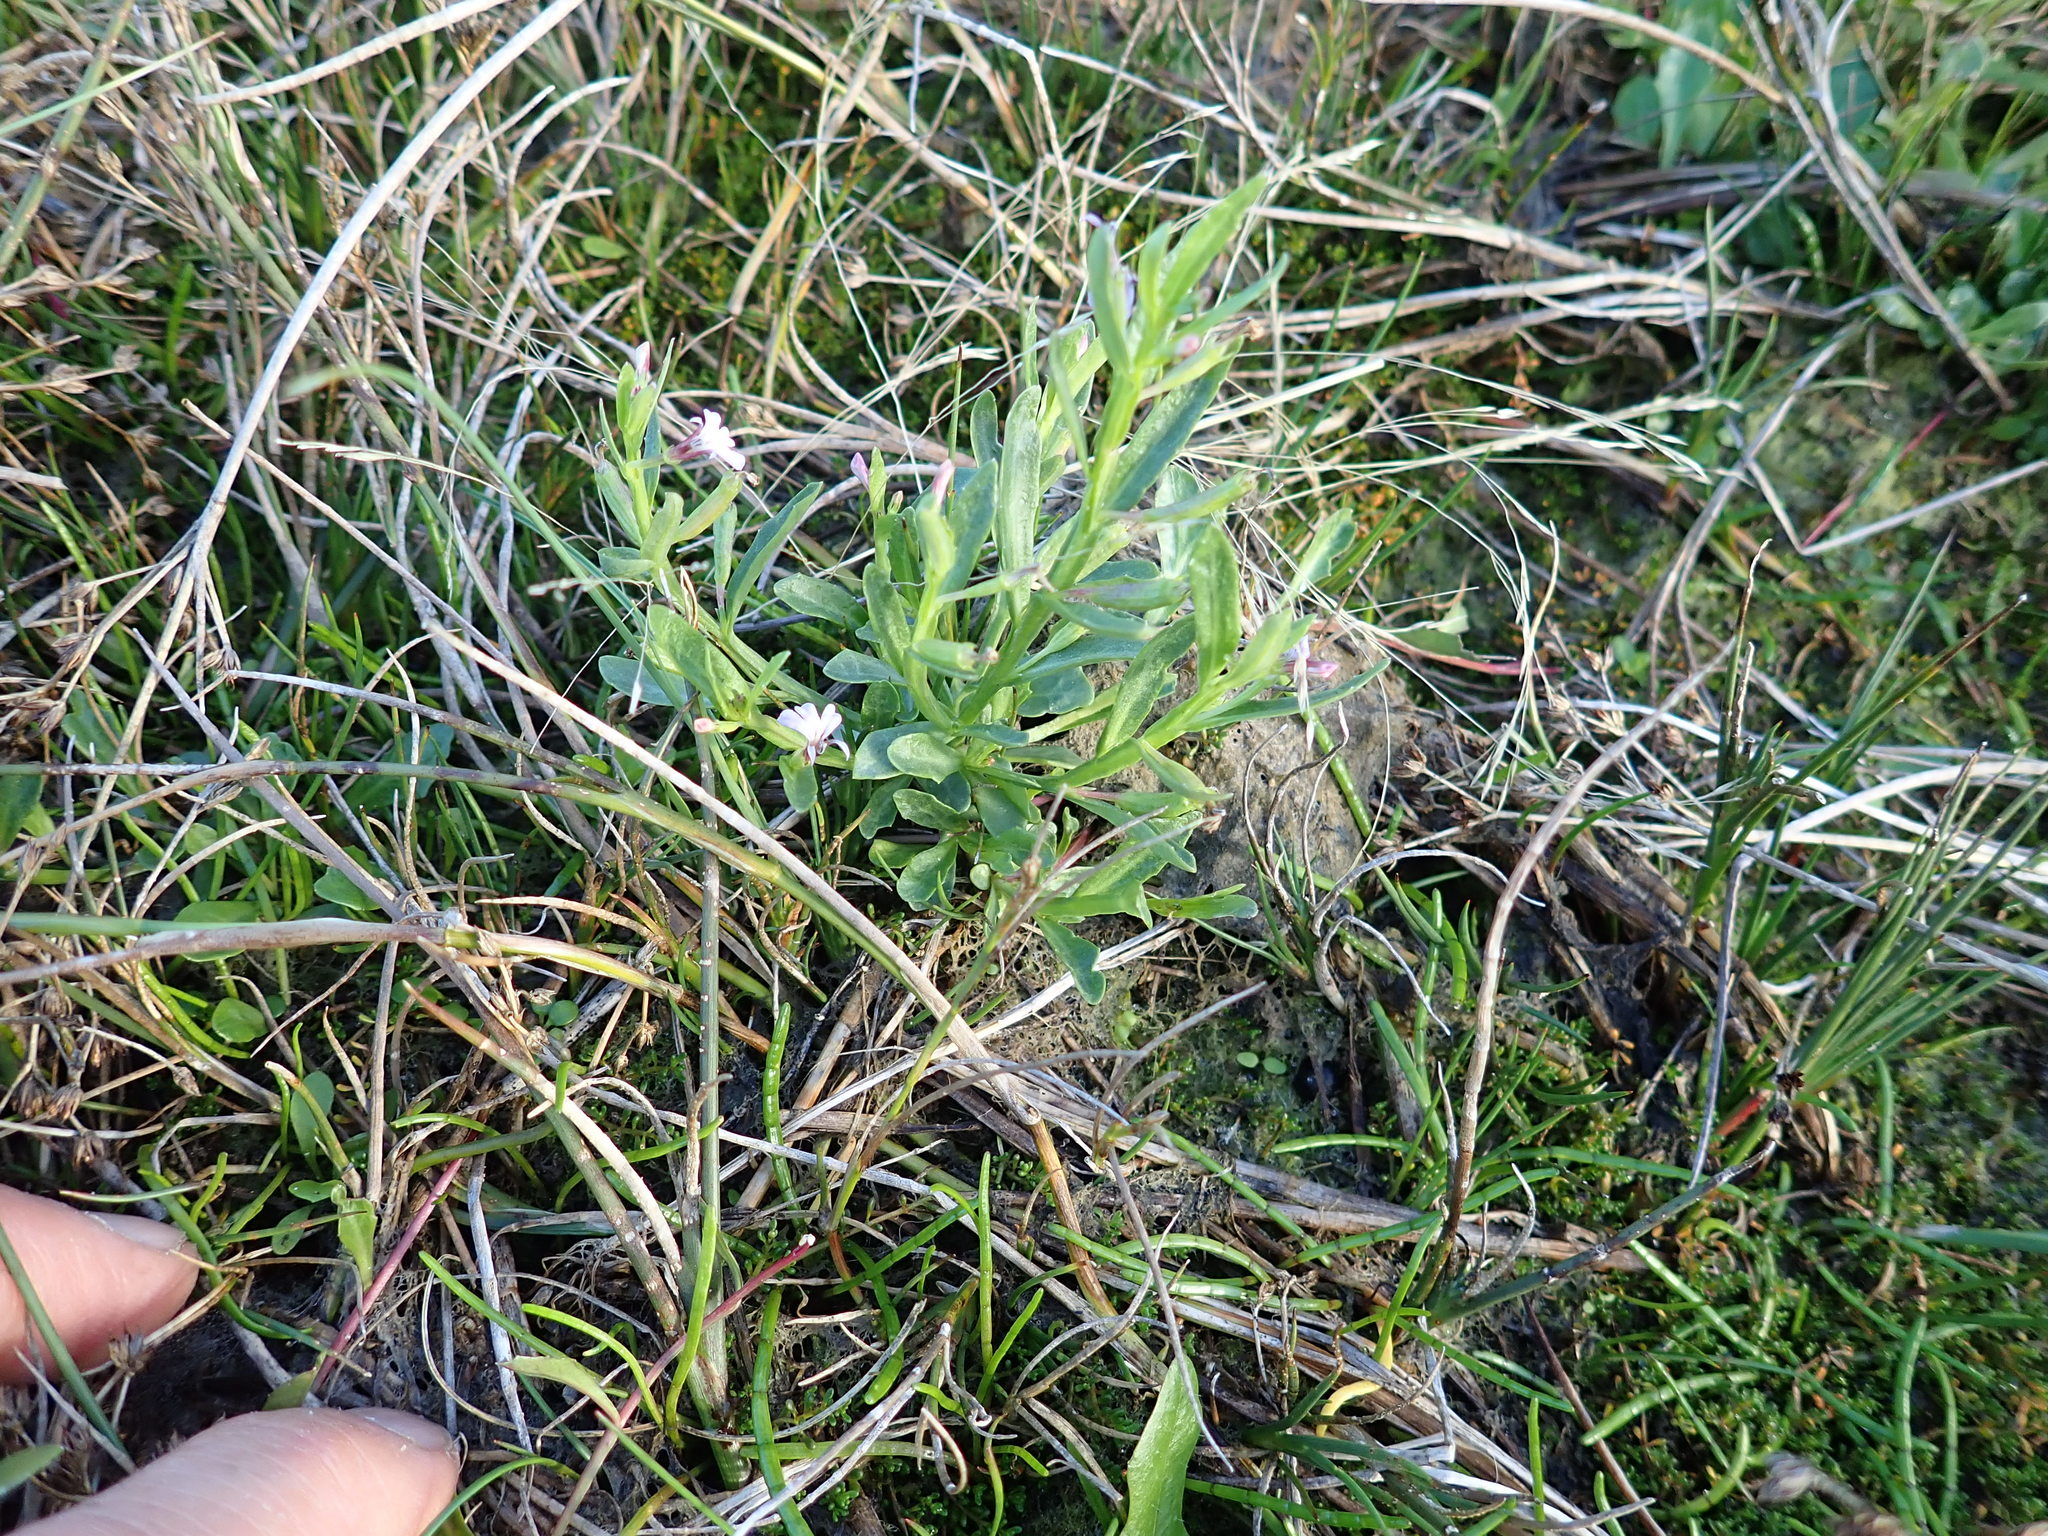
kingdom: Plantae
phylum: Tracheophyta
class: Magnoliopsida
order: Asterales
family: Campanulaceae
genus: Lobelia
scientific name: Lobelia anceps
